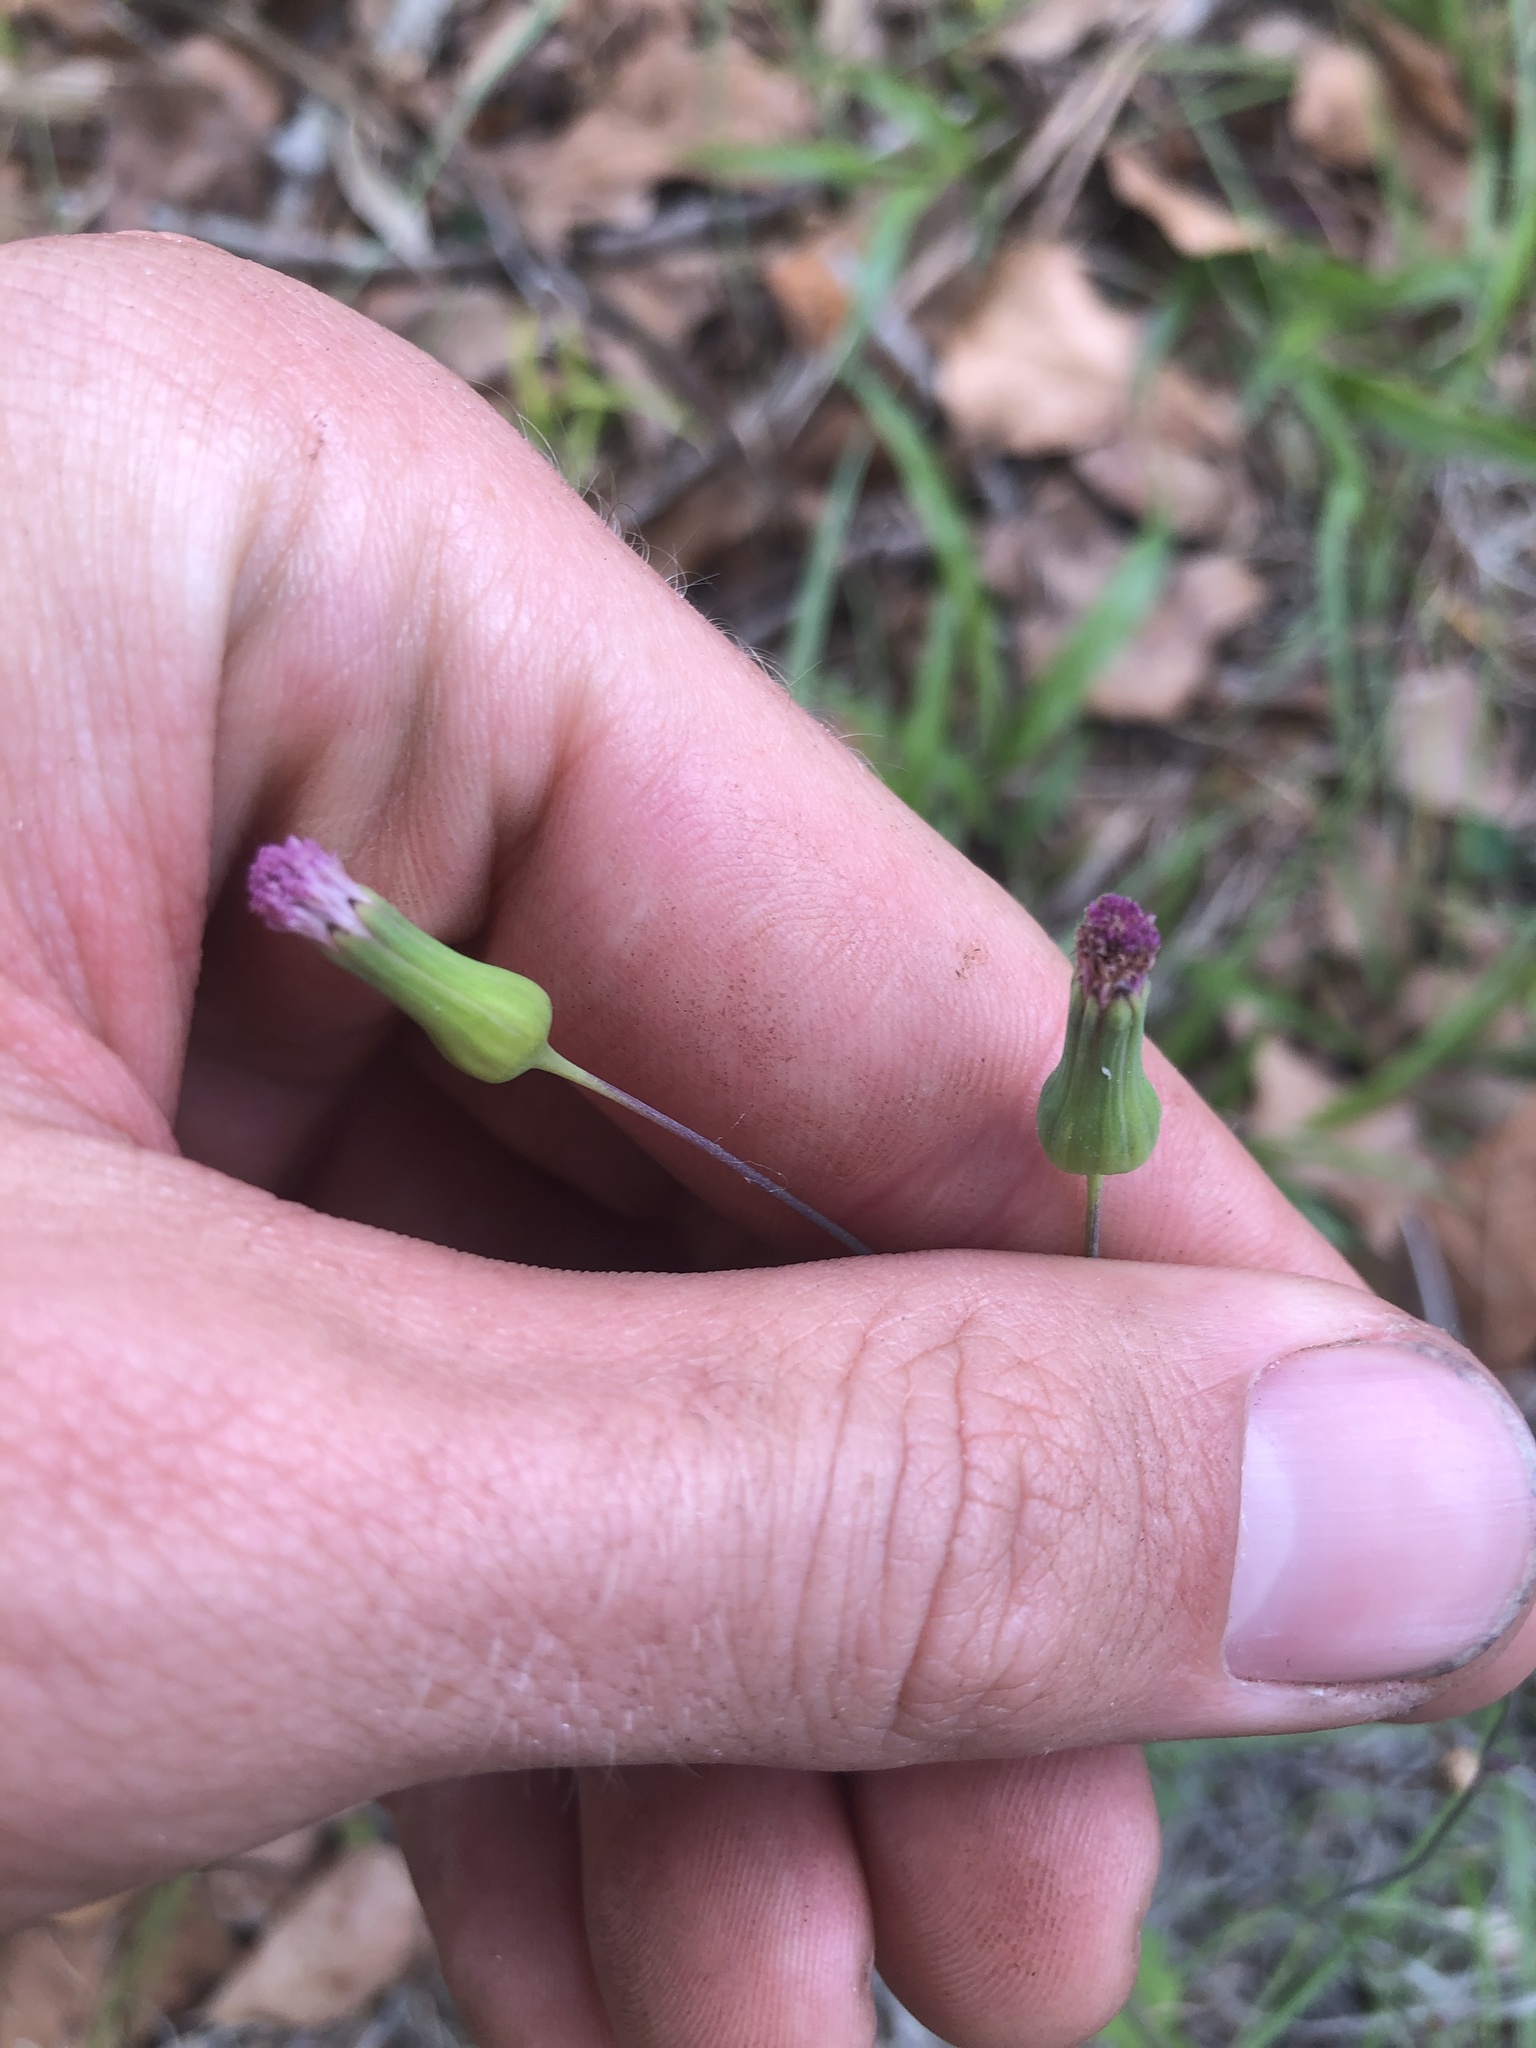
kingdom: Plantae
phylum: Tracheophyta
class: Magnoliopsida
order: Asterales
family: Asteraceae
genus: Emilia
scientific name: Emilia sonchifolia
